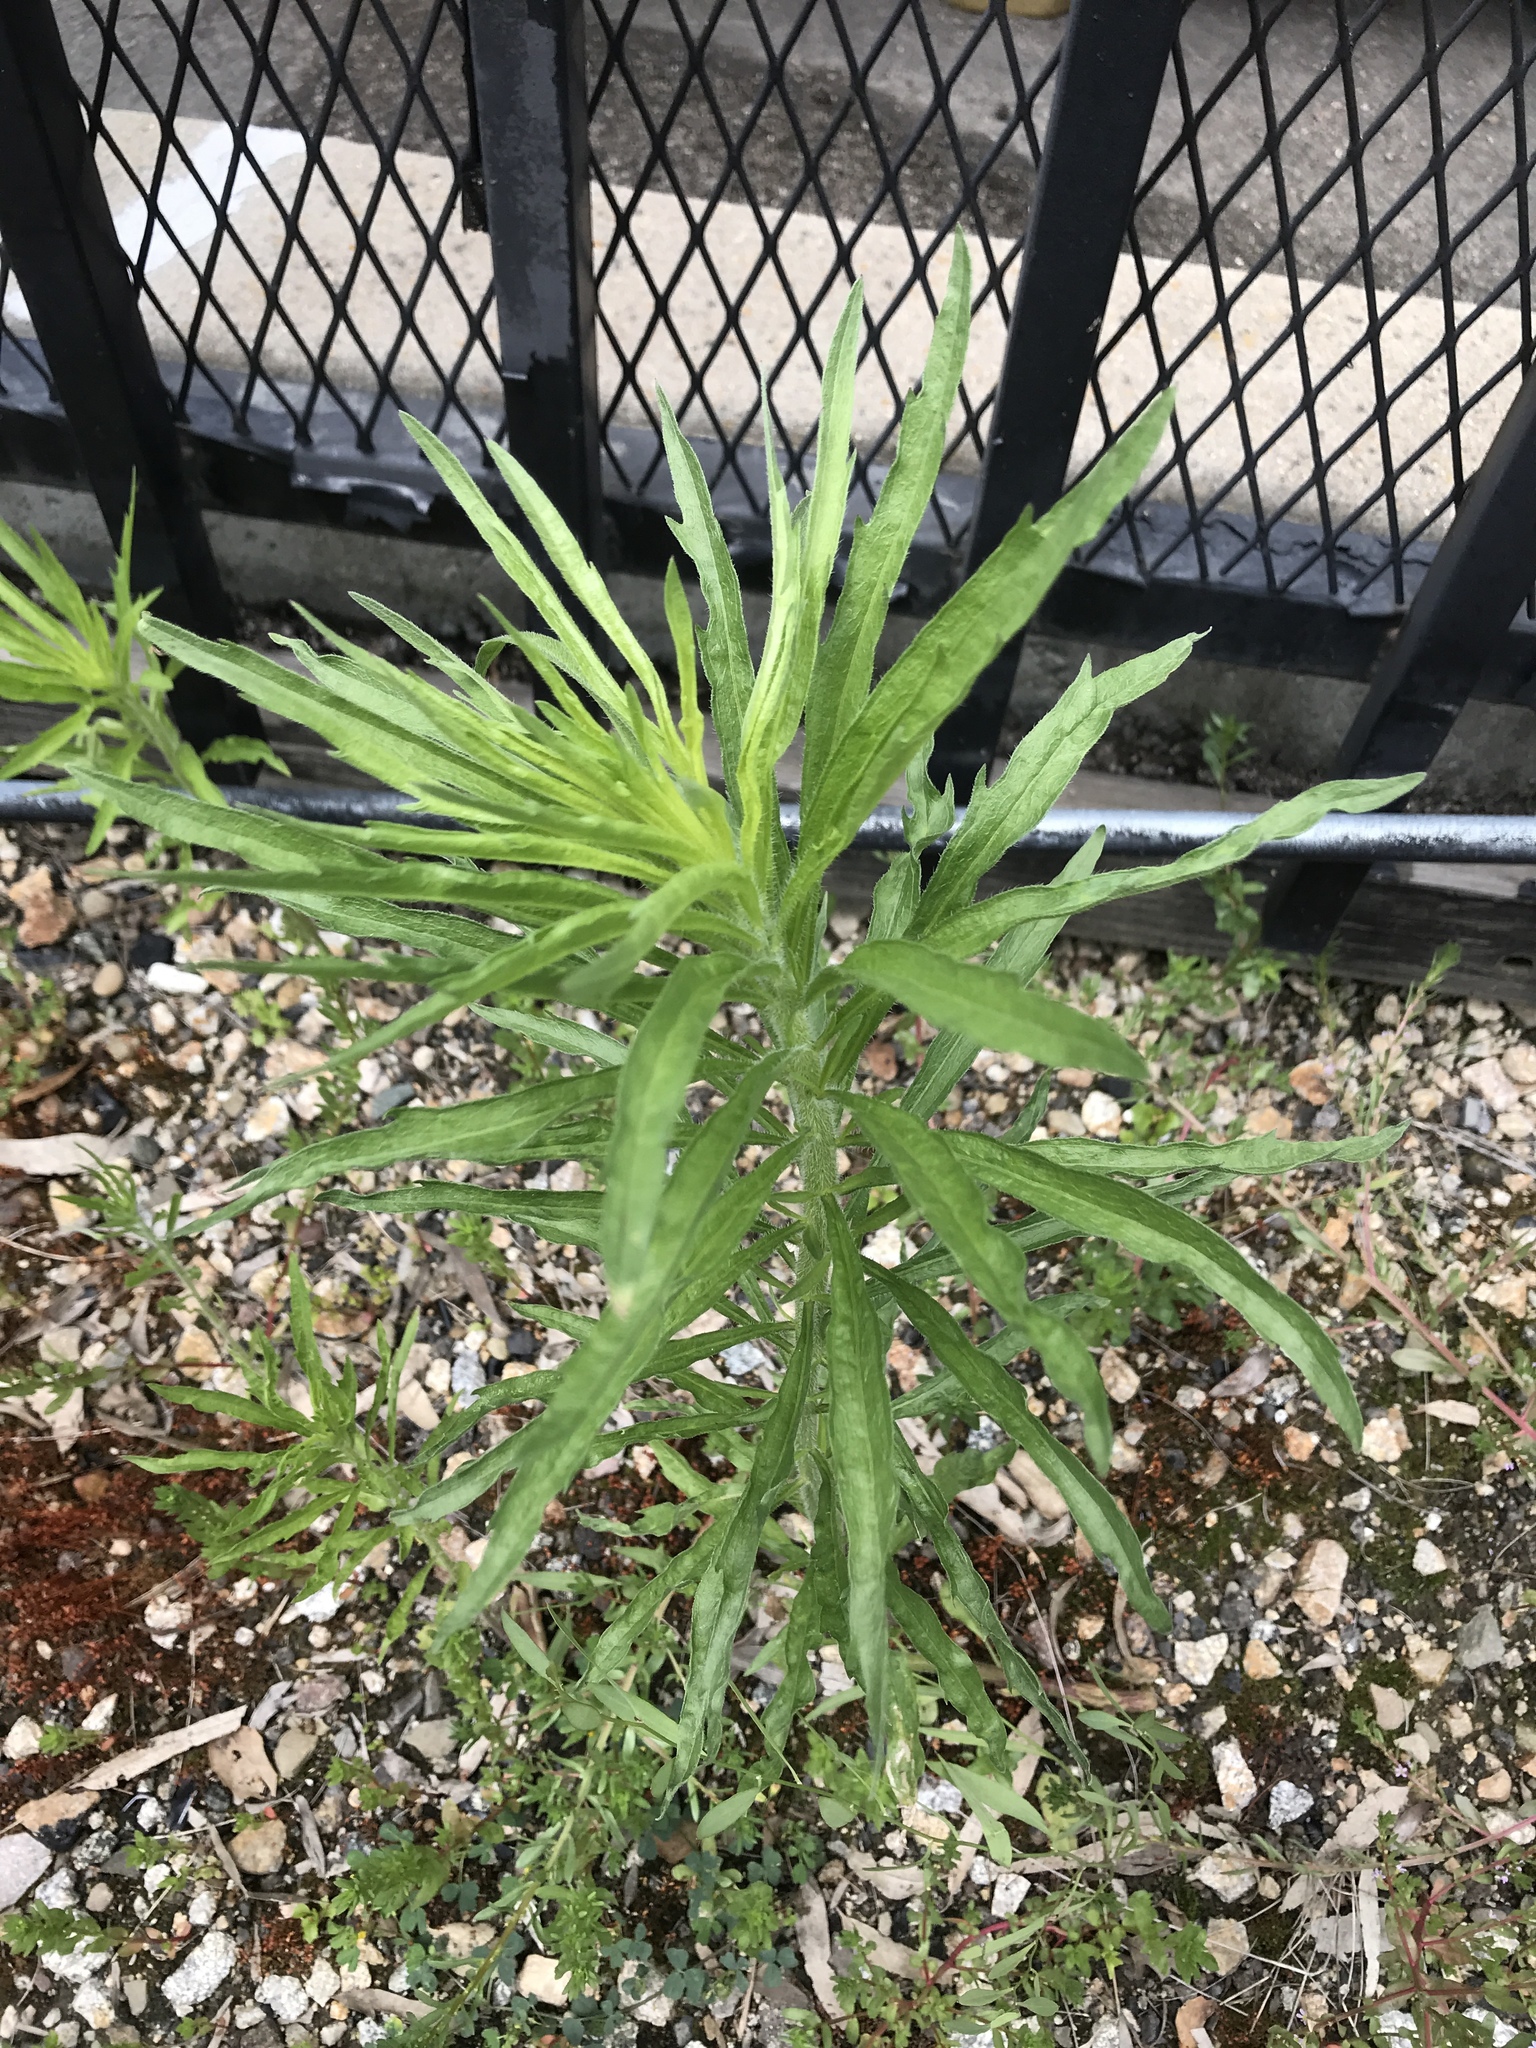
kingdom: Plantae
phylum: Tracheophyta
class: Magnoliopsida
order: Asterales
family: Asteraceae
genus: Erigeron
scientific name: Erigeron canadensis
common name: Canadian fleabane
